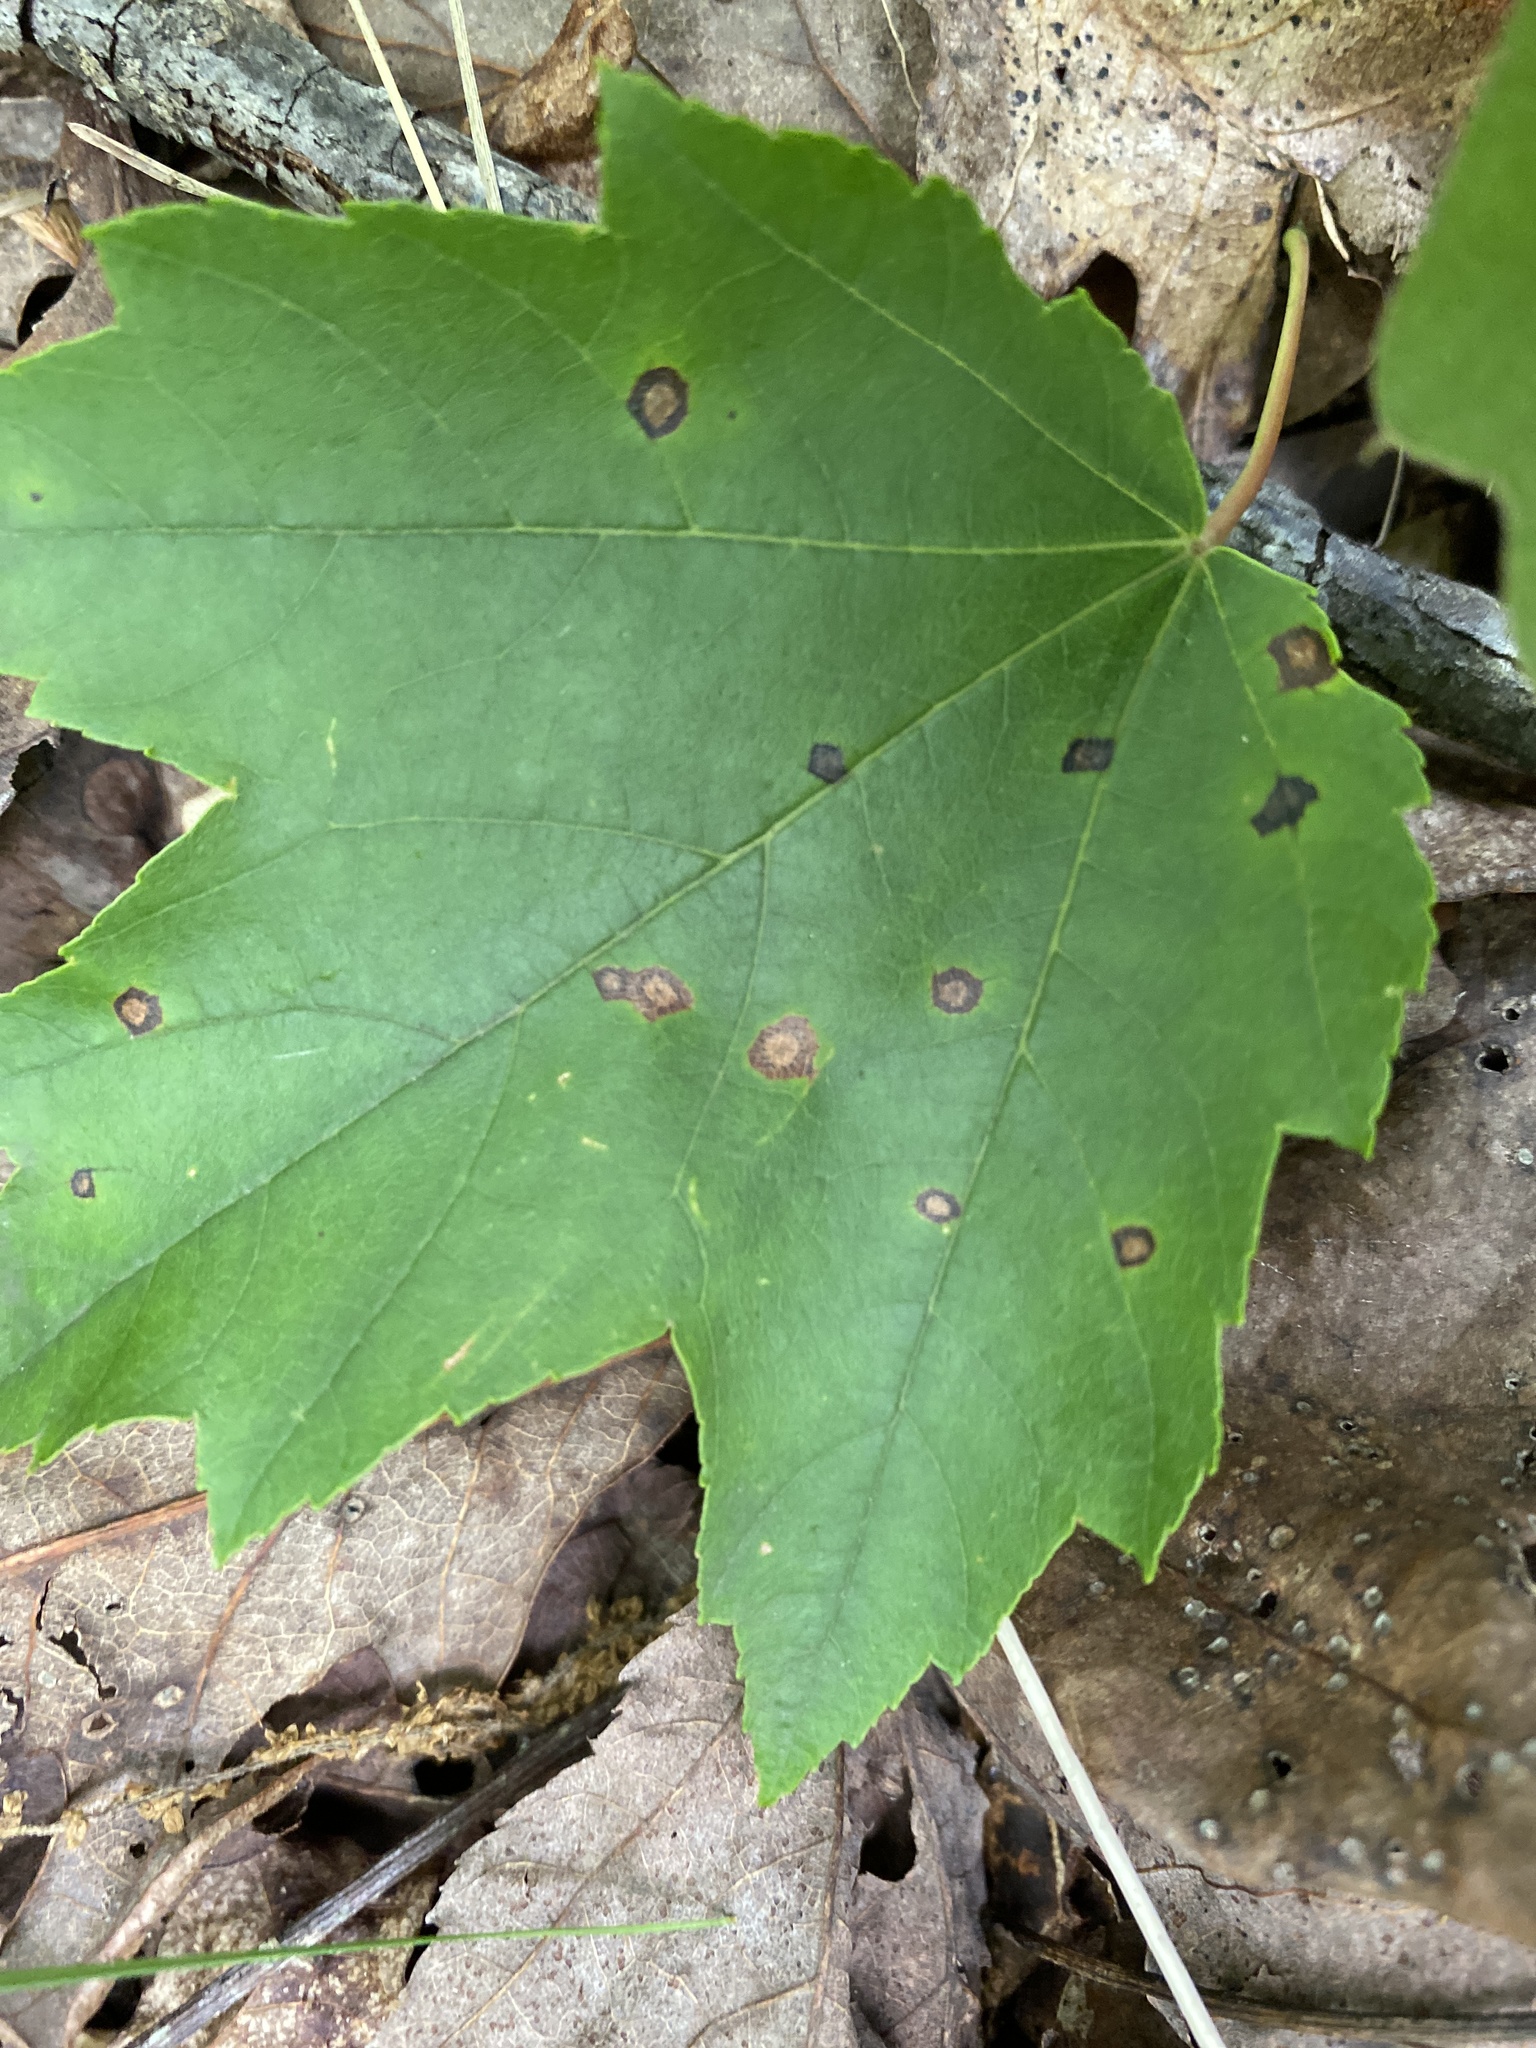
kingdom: Animalia
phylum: Arthropoda
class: Insecta
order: Diptera
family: Cecidomyiidae
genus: Acericecis
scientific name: Acericecis ocellaris
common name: Ocellate gall midge
